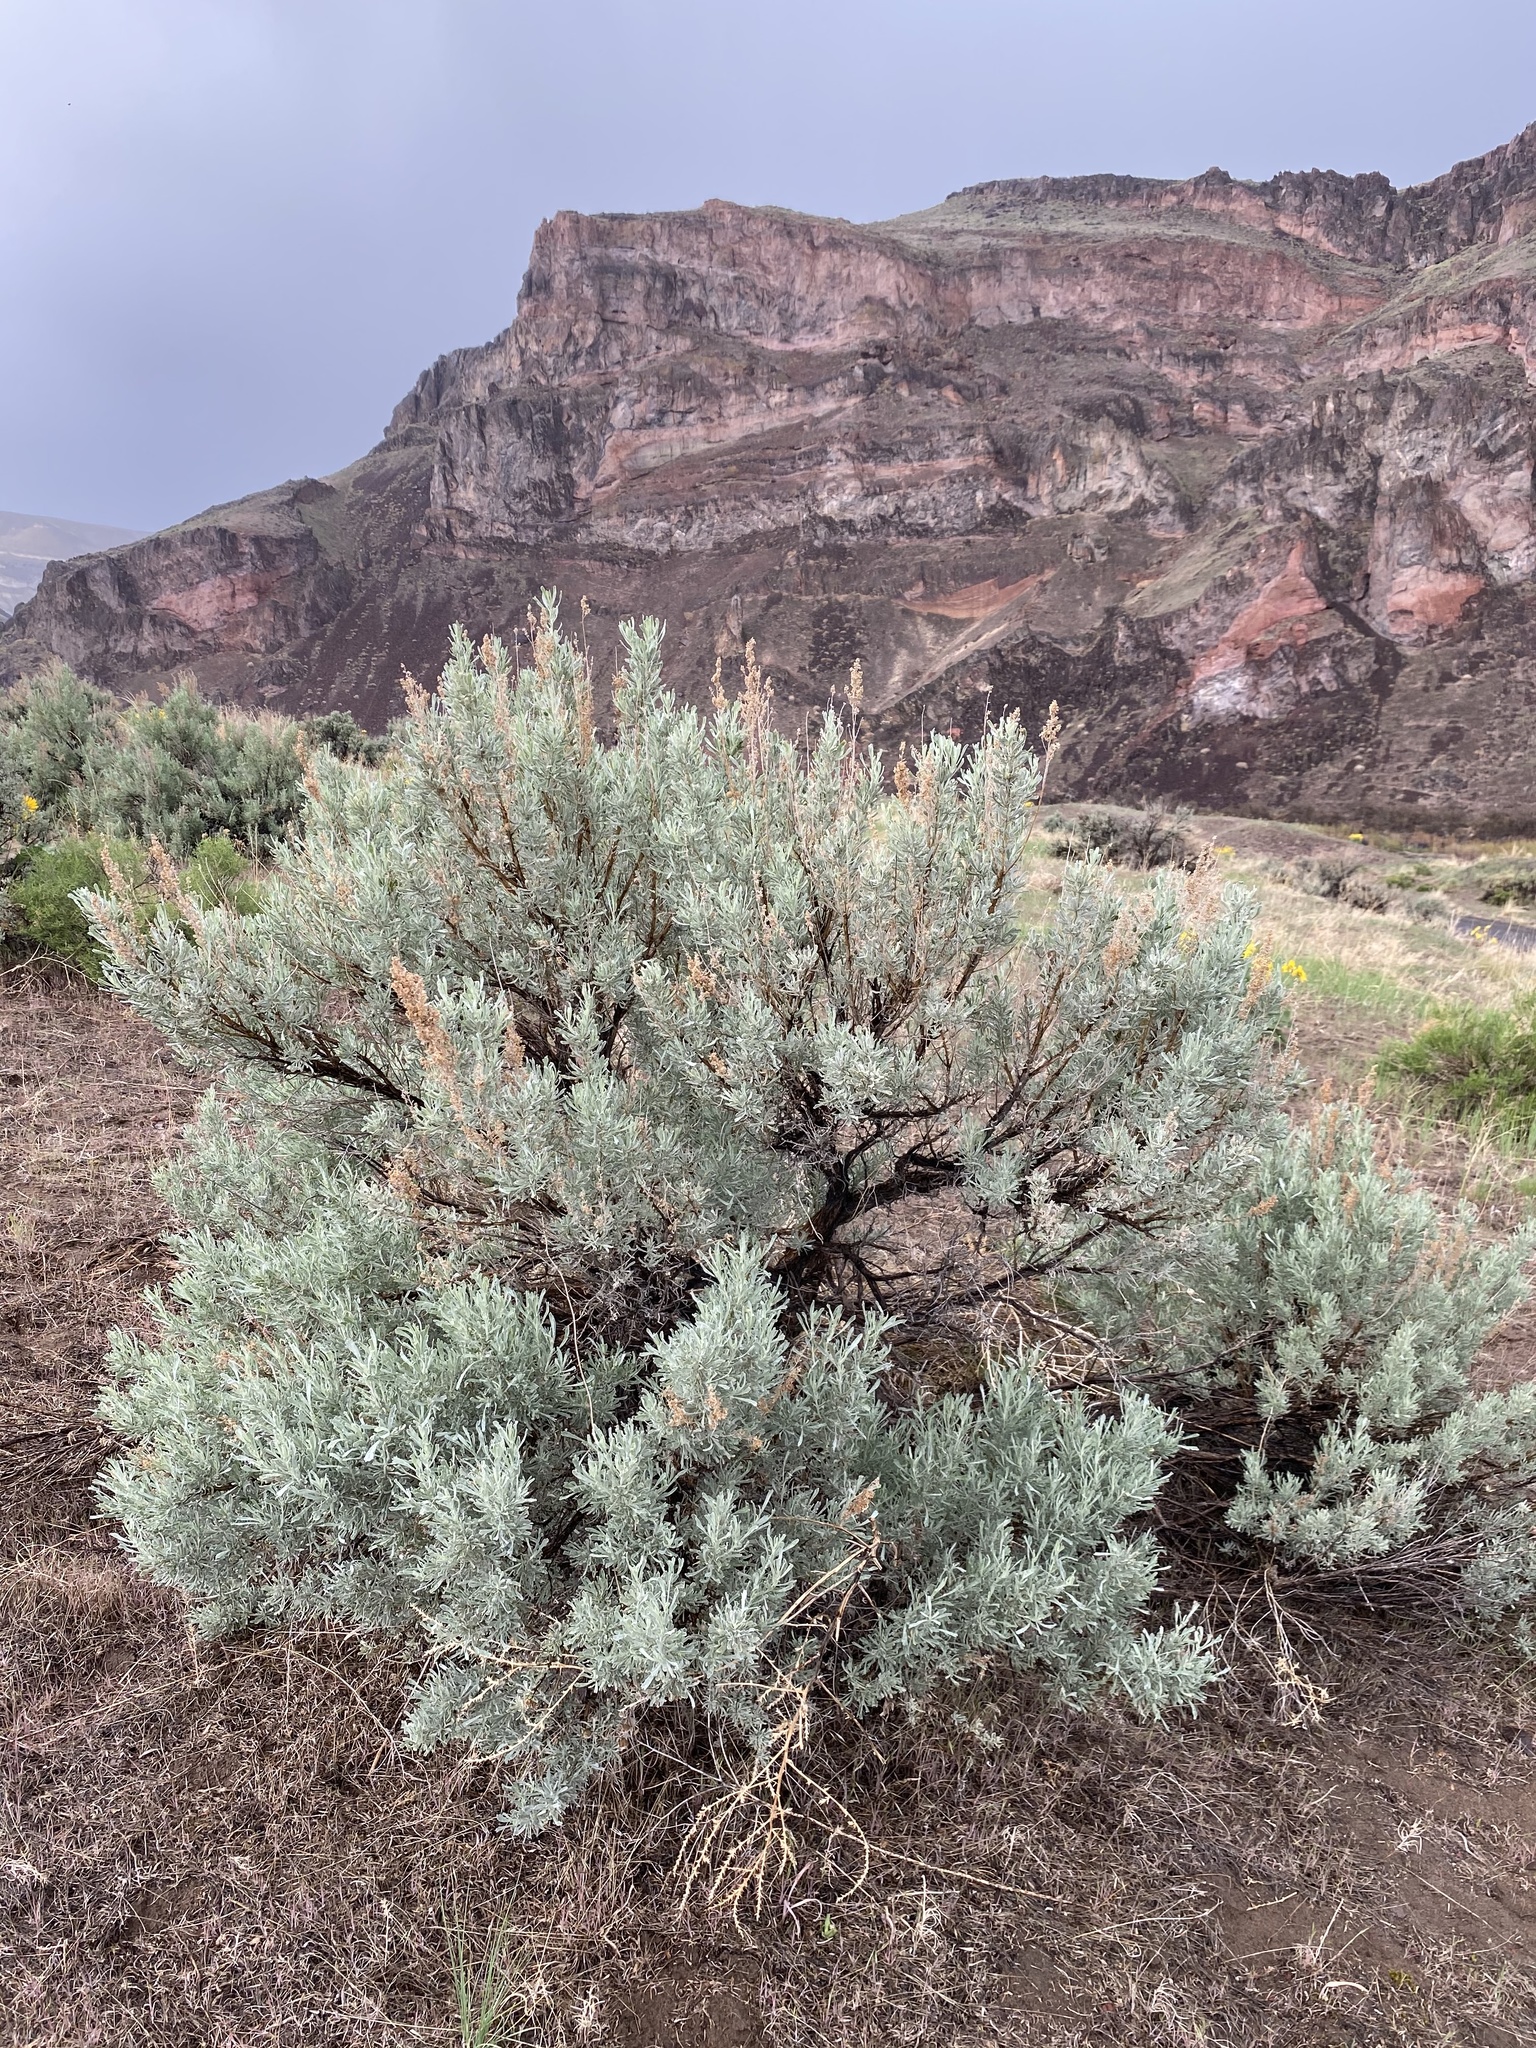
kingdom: Plantae
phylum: Tracheophyta
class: Magnoliopsida
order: Asterales
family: Asteraceae
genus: Artemisia
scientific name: Artemisia tridentata
